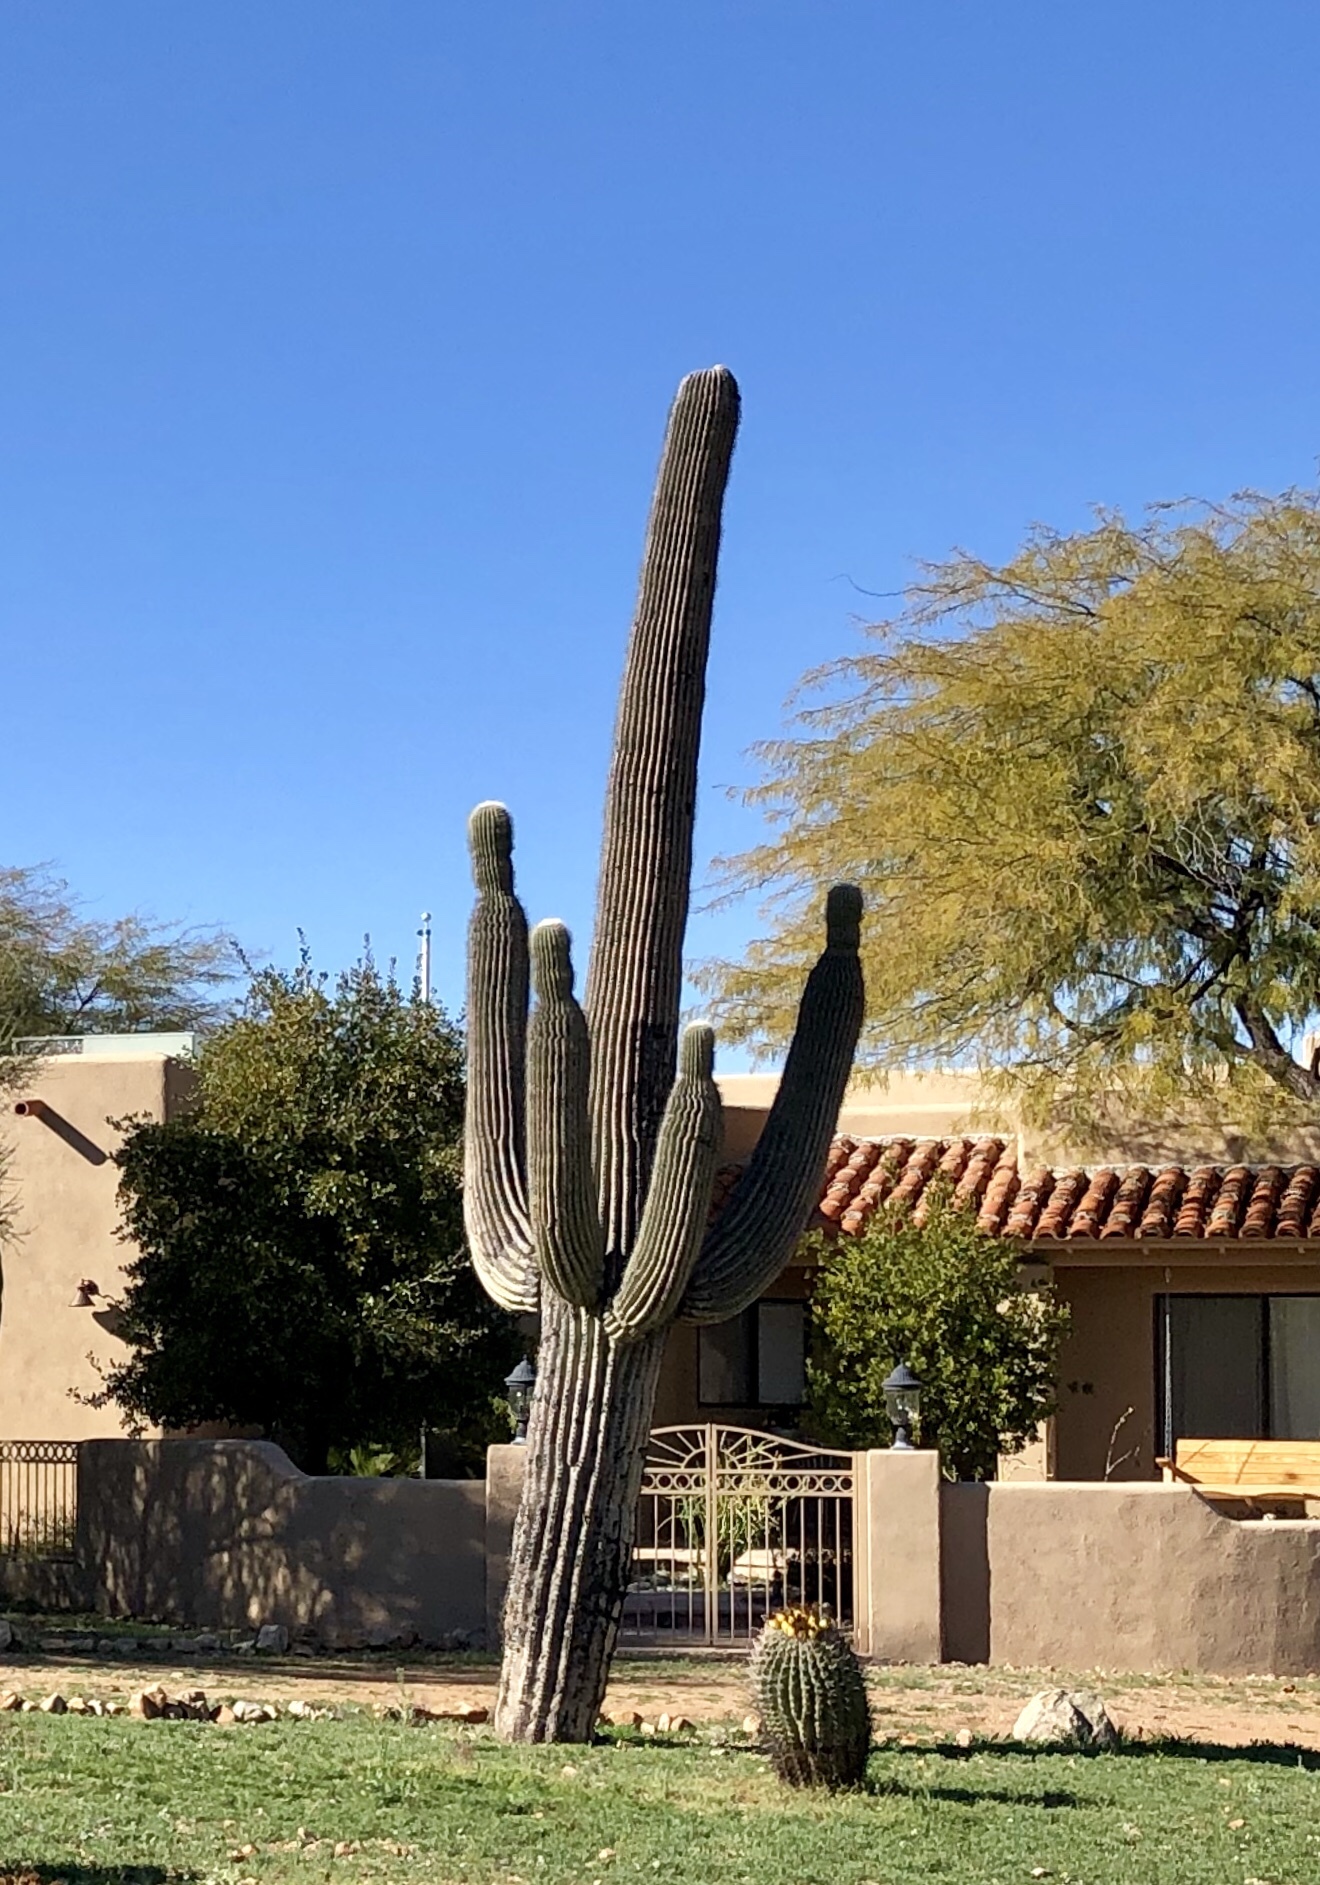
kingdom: Plantae
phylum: Tracheophyta
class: Magnoliopsida
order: Caryophyllales
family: Cactaceae
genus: Carnegiea
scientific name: Carnegiea gigantea
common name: Saguaro
